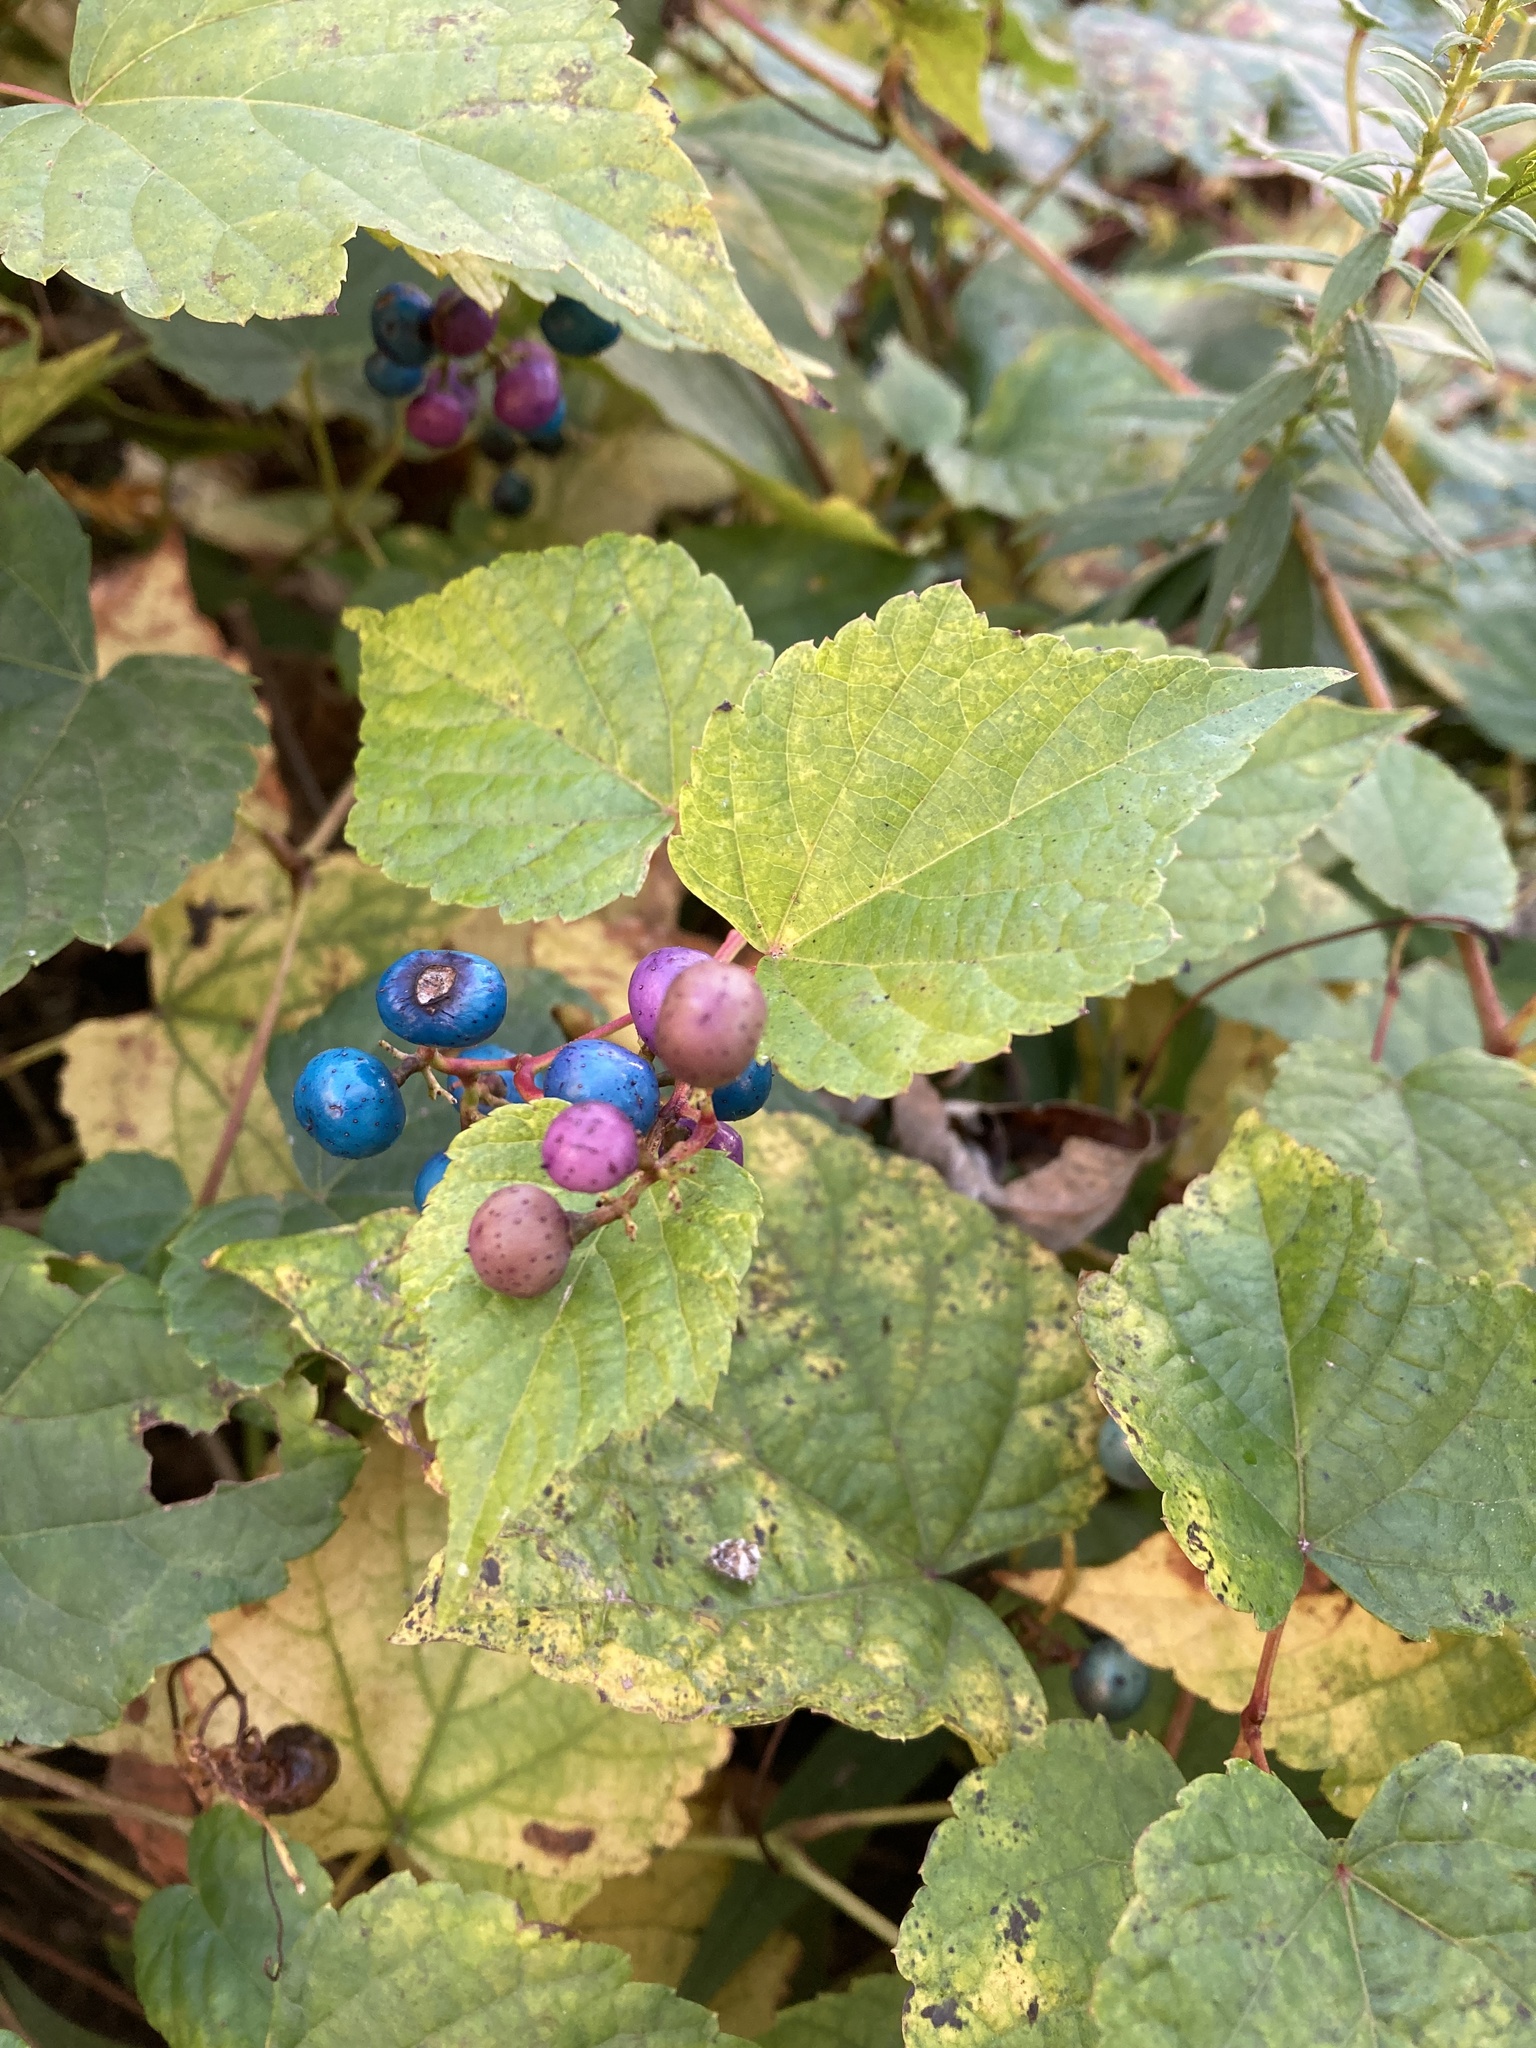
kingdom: Plantae
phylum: Tracheophyta
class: Magnoliopsida
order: Vitales
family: Vitaceae
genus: Ampelopsis
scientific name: Ampelopsis glandulosa
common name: Amur peppervine
